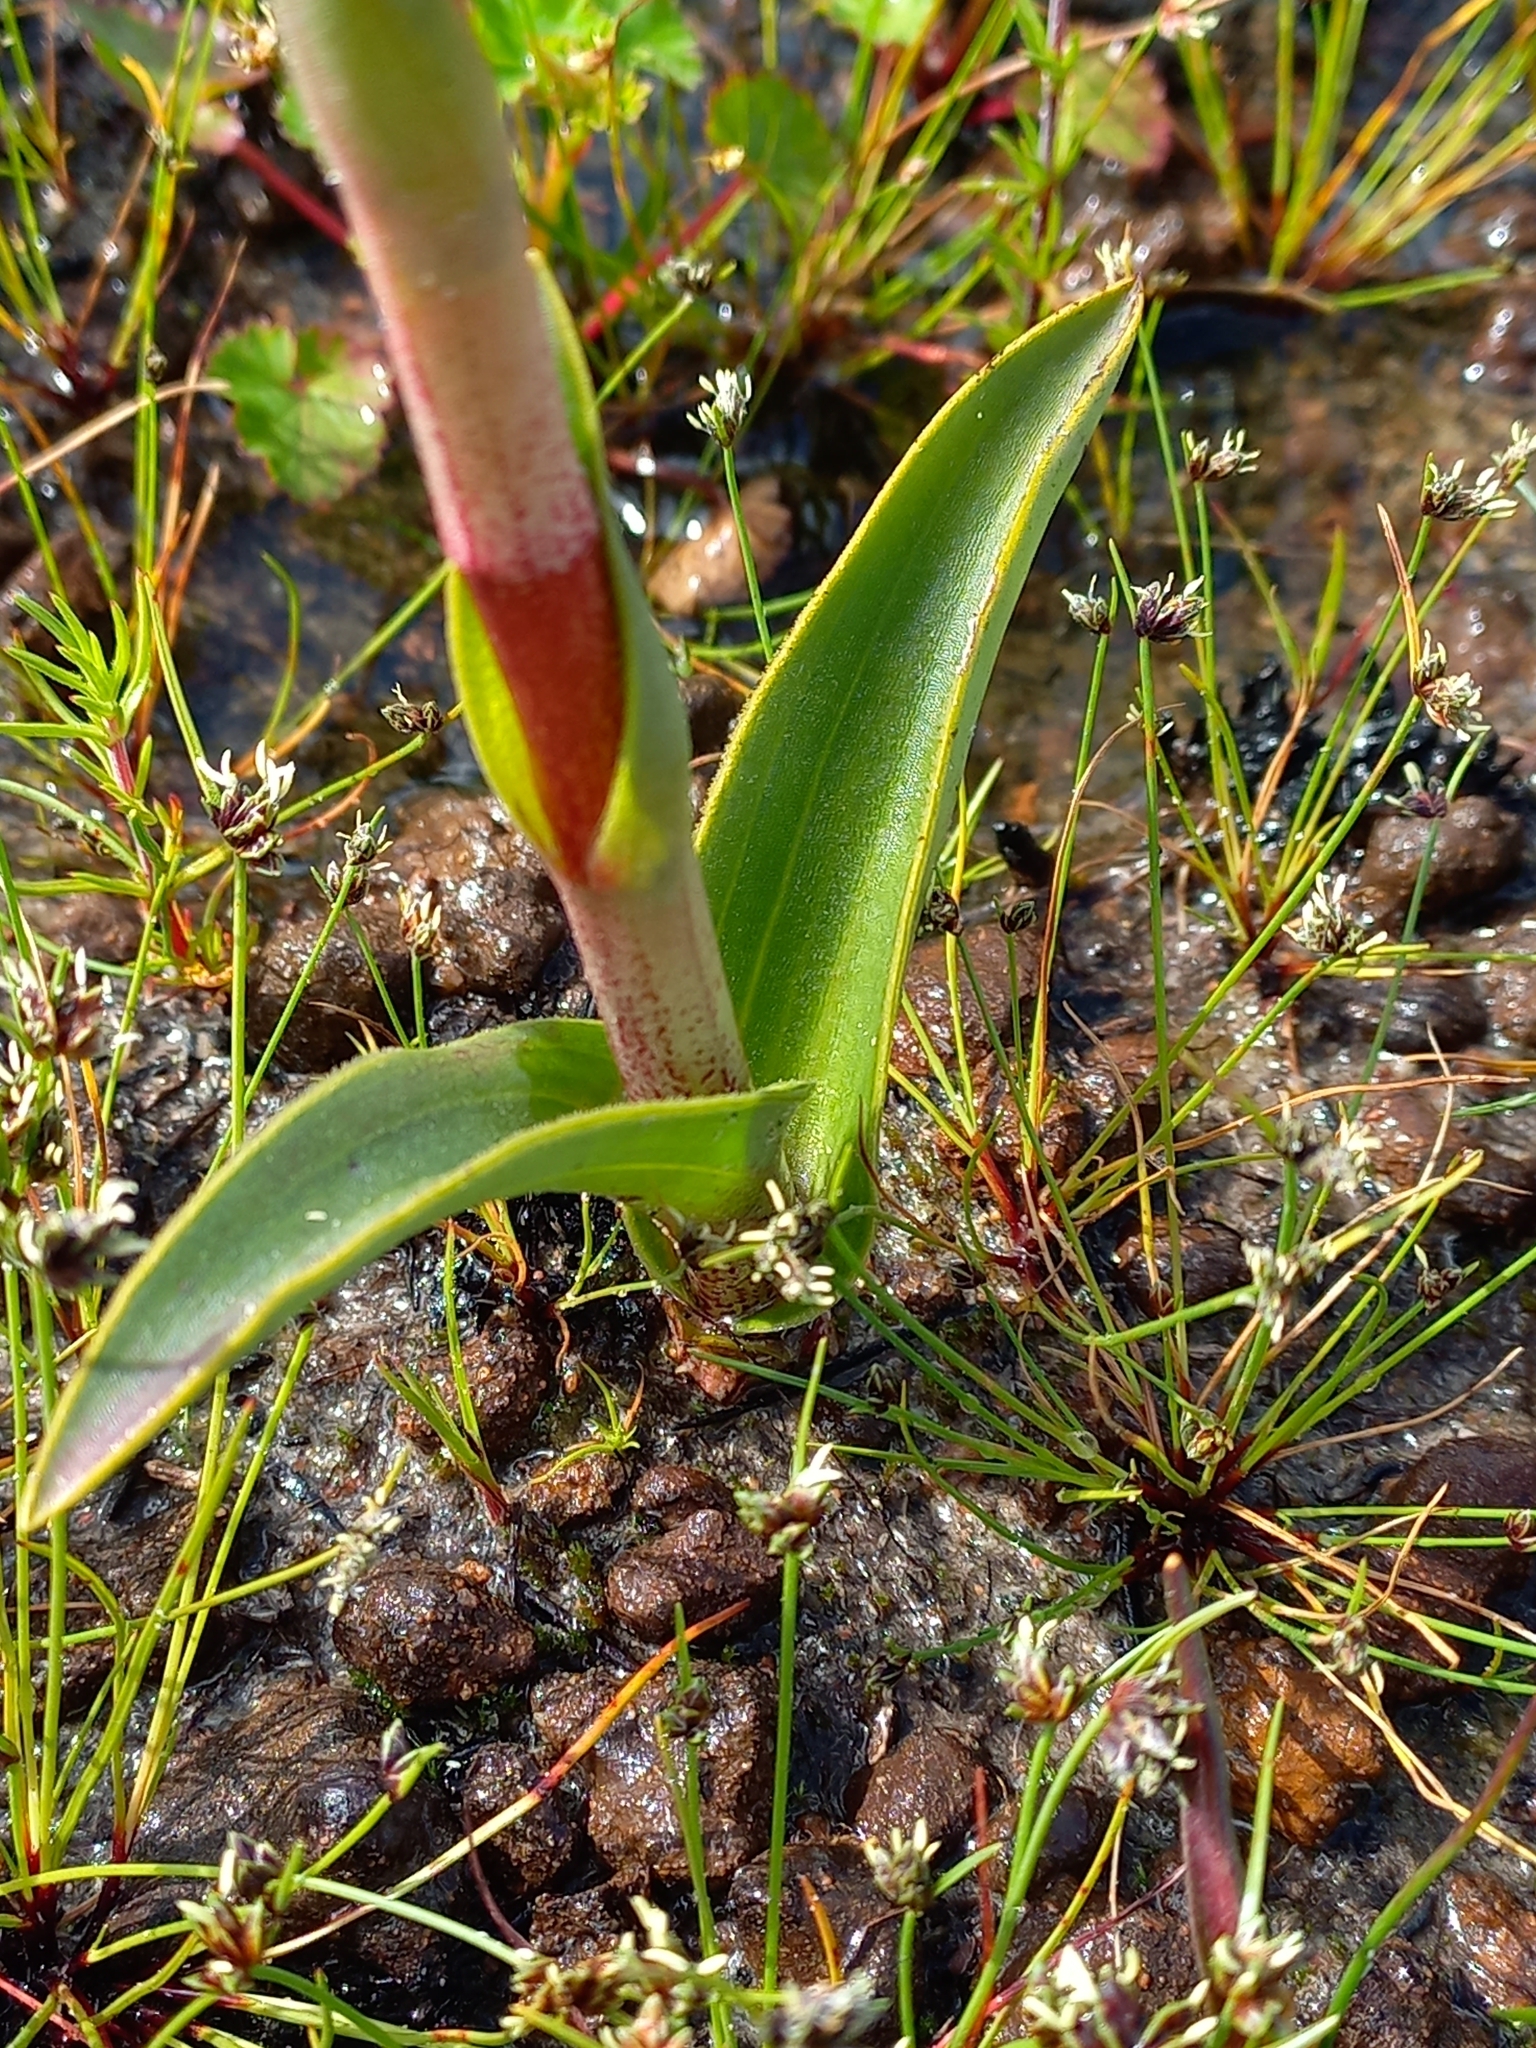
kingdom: Plantae
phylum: Tracheophyta
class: Liliopsida
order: Asparagales
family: Orchidaceae
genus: Satyrium
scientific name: Satyrium coriifolium
